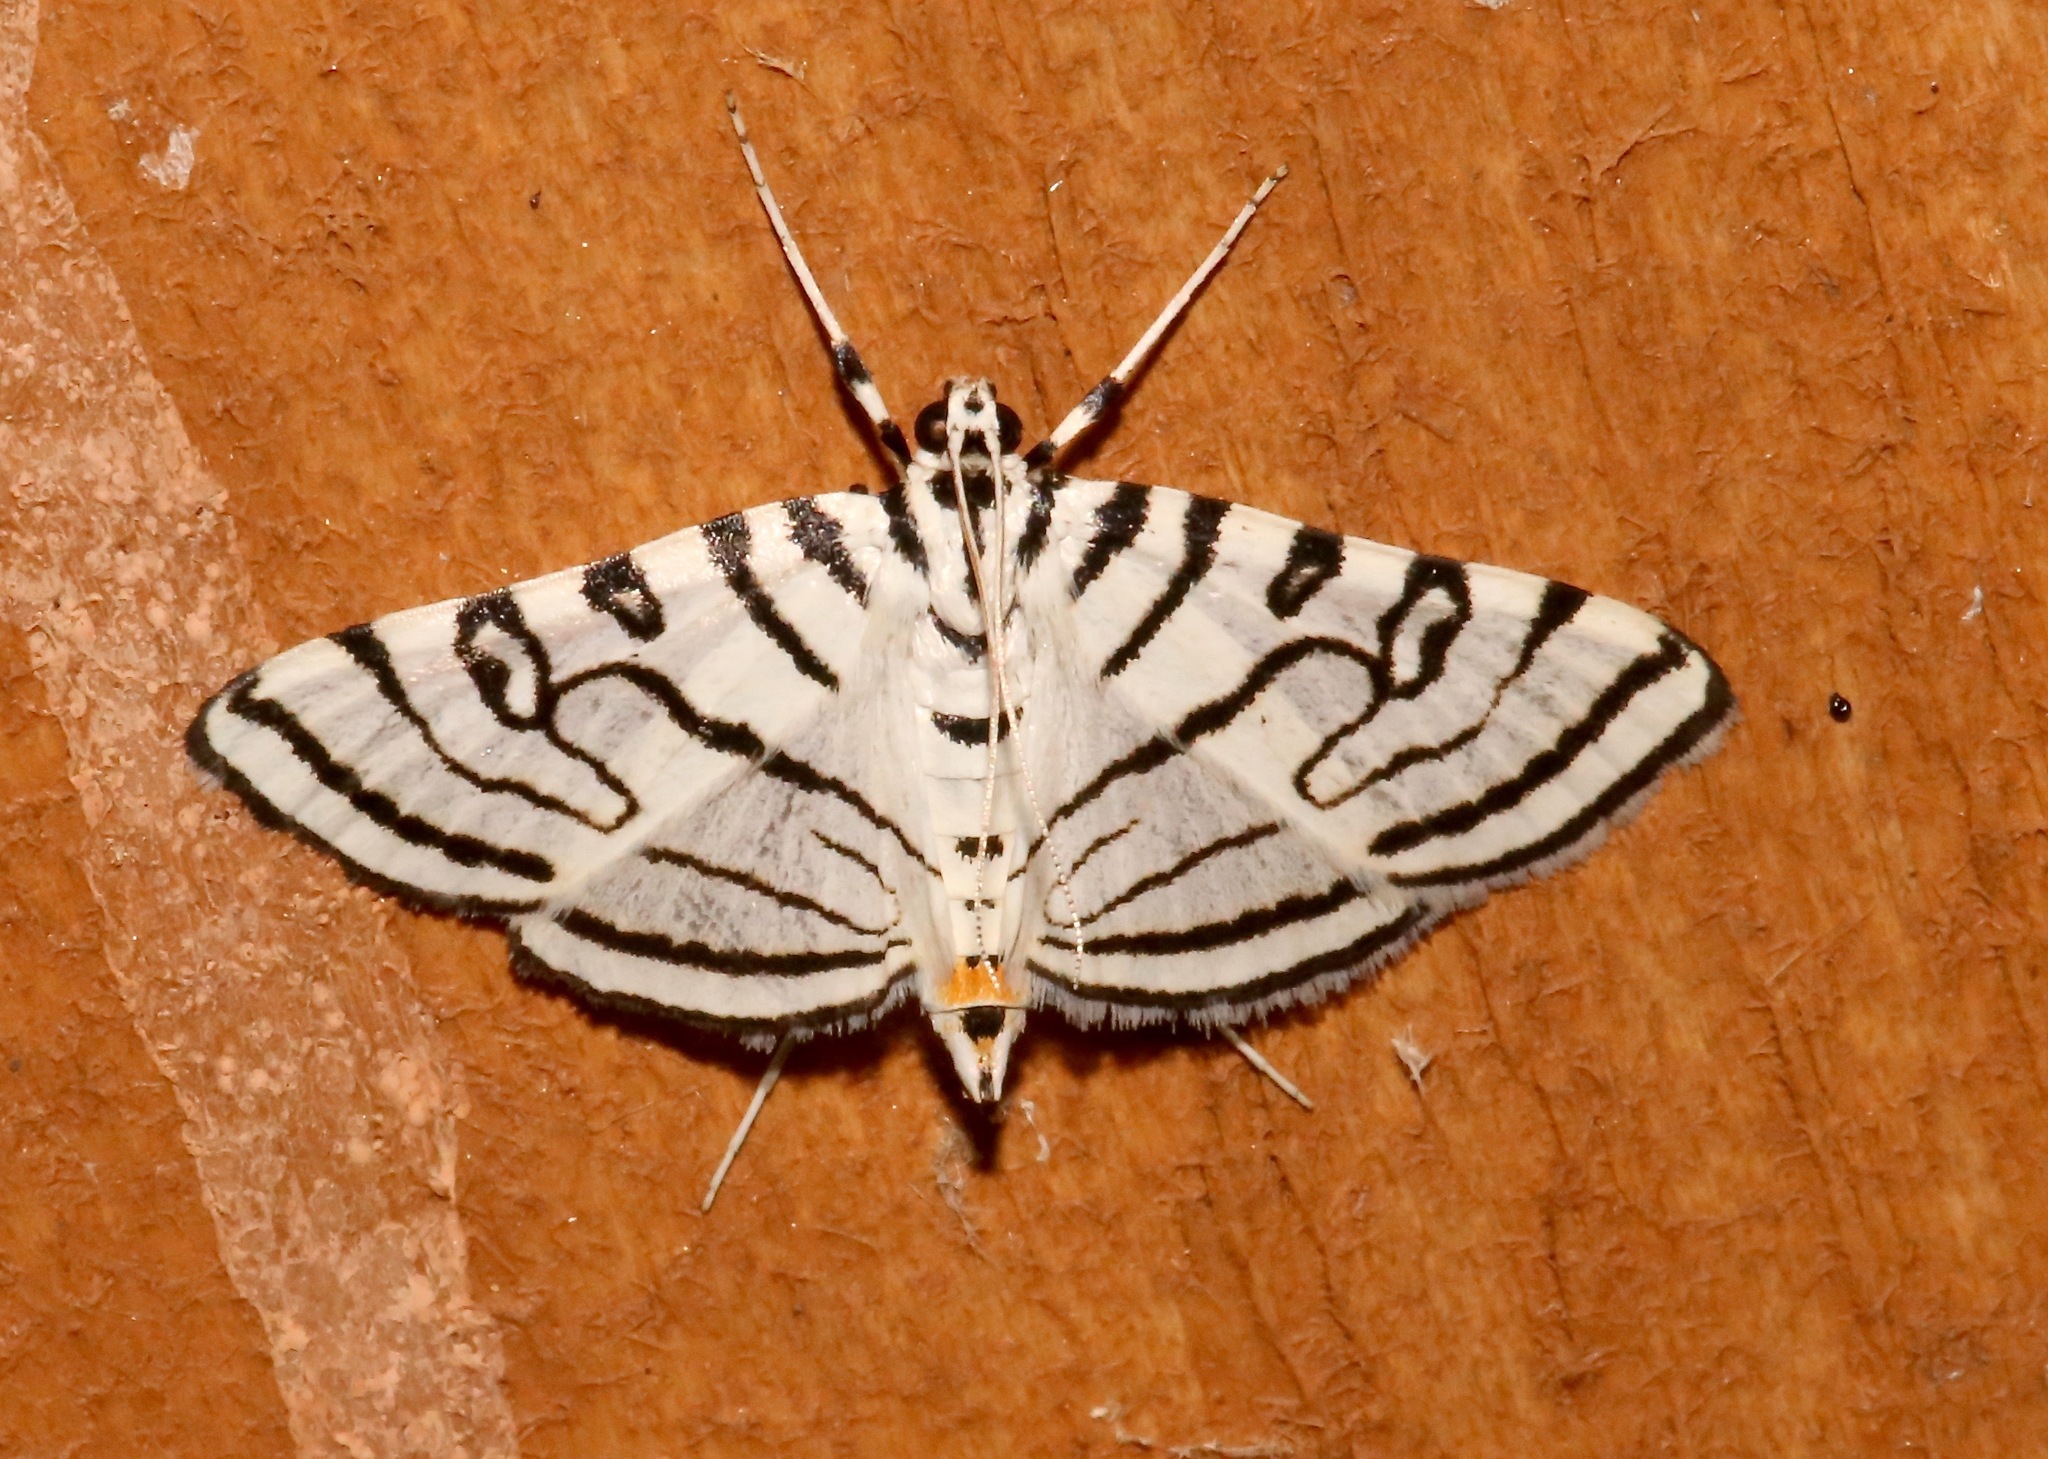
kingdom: Animalia
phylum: Arthropoda
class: Insecta
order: Lepidoptera
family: Crambidae
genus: Conchylodes
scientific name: Conchylodes concinnalis
